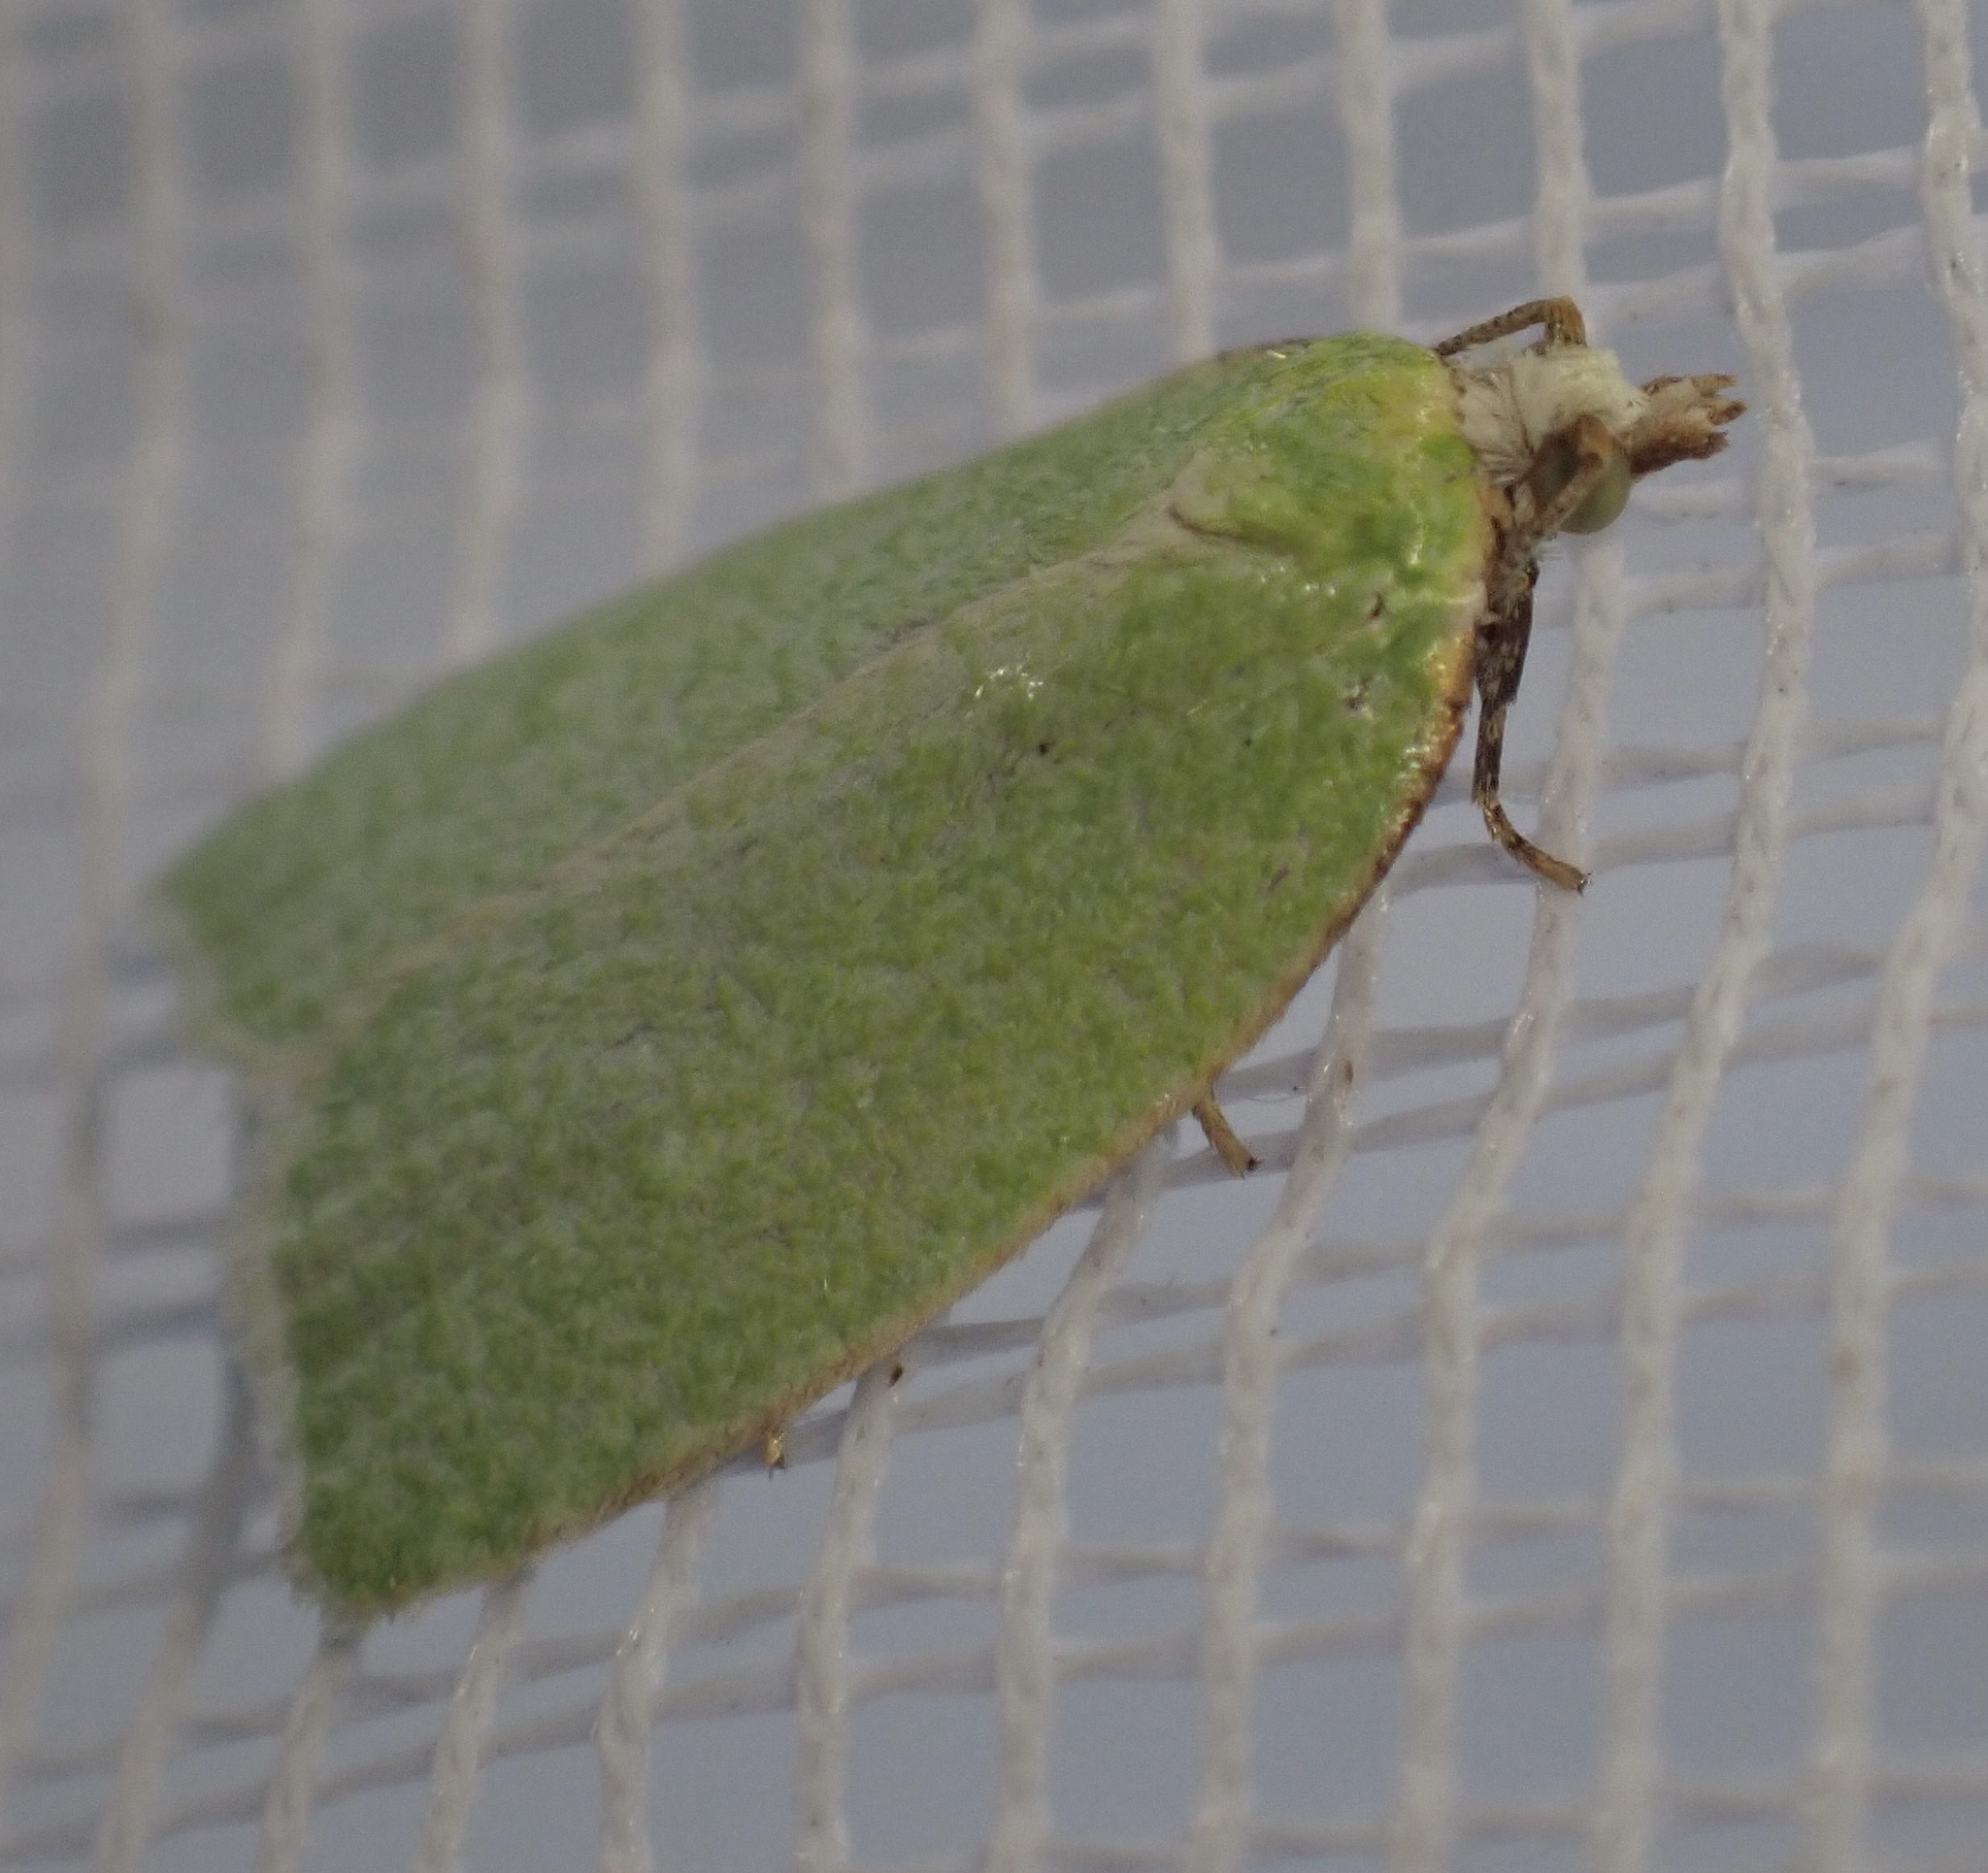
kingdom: Animalia
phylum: Arthropoda
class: Insecta
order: Lepidoptera
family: Tortricidae
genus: Tortrix
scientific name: Tortrix viridana
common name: Green oak tortrix
